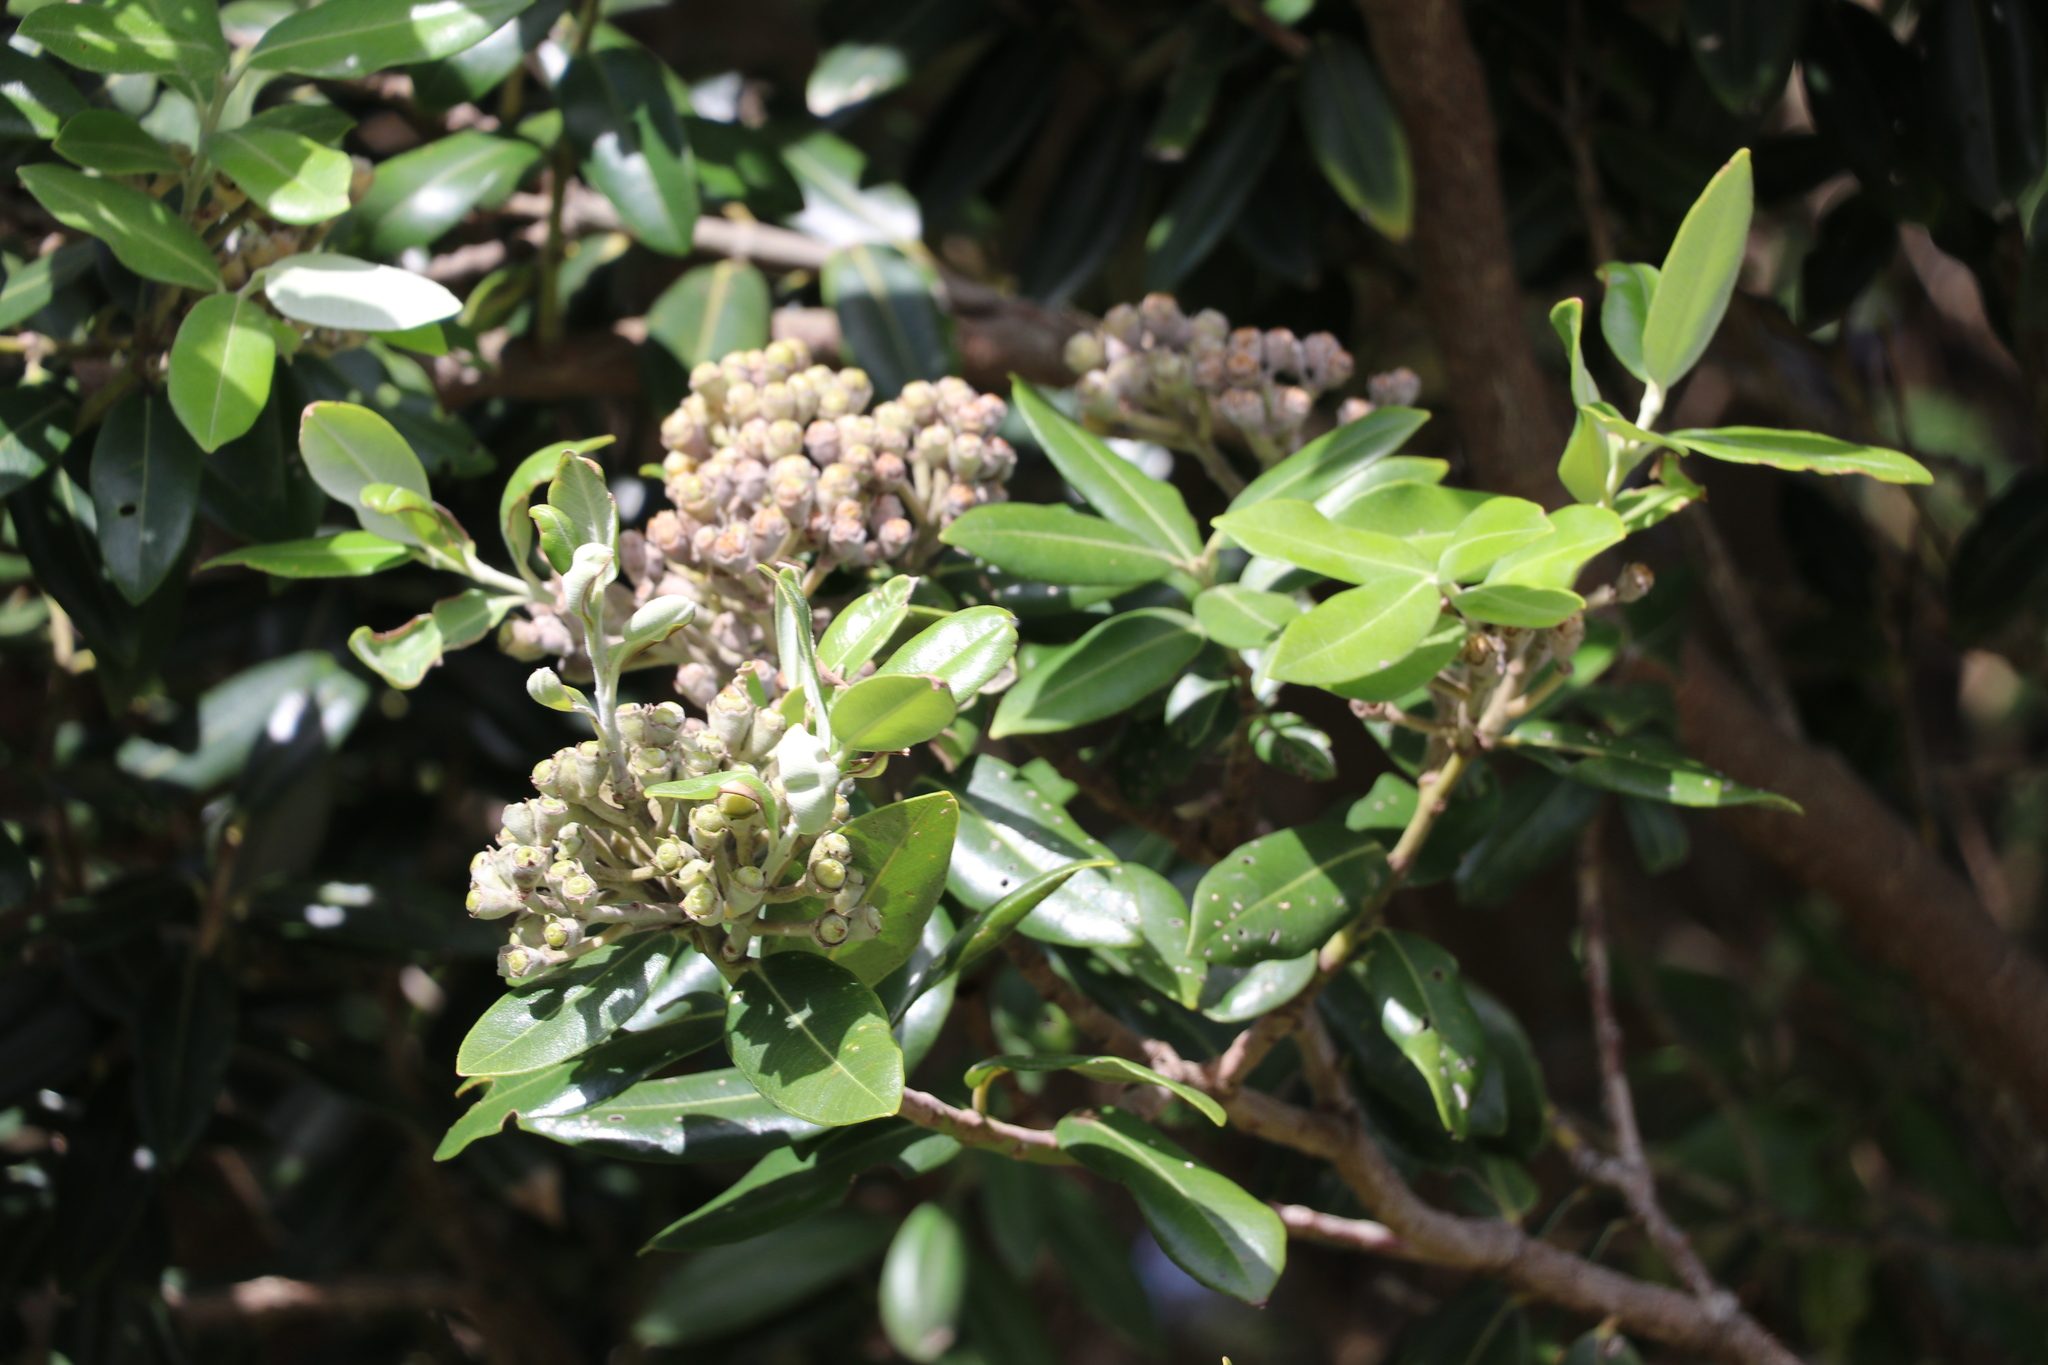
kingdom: Plantae
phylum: Tracheophyta
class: Magnoliopsida
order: Myrtales
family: Myrtaceae
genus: Metrosideros
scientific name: Metrosideros excelsa
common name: New zealand christmastree
